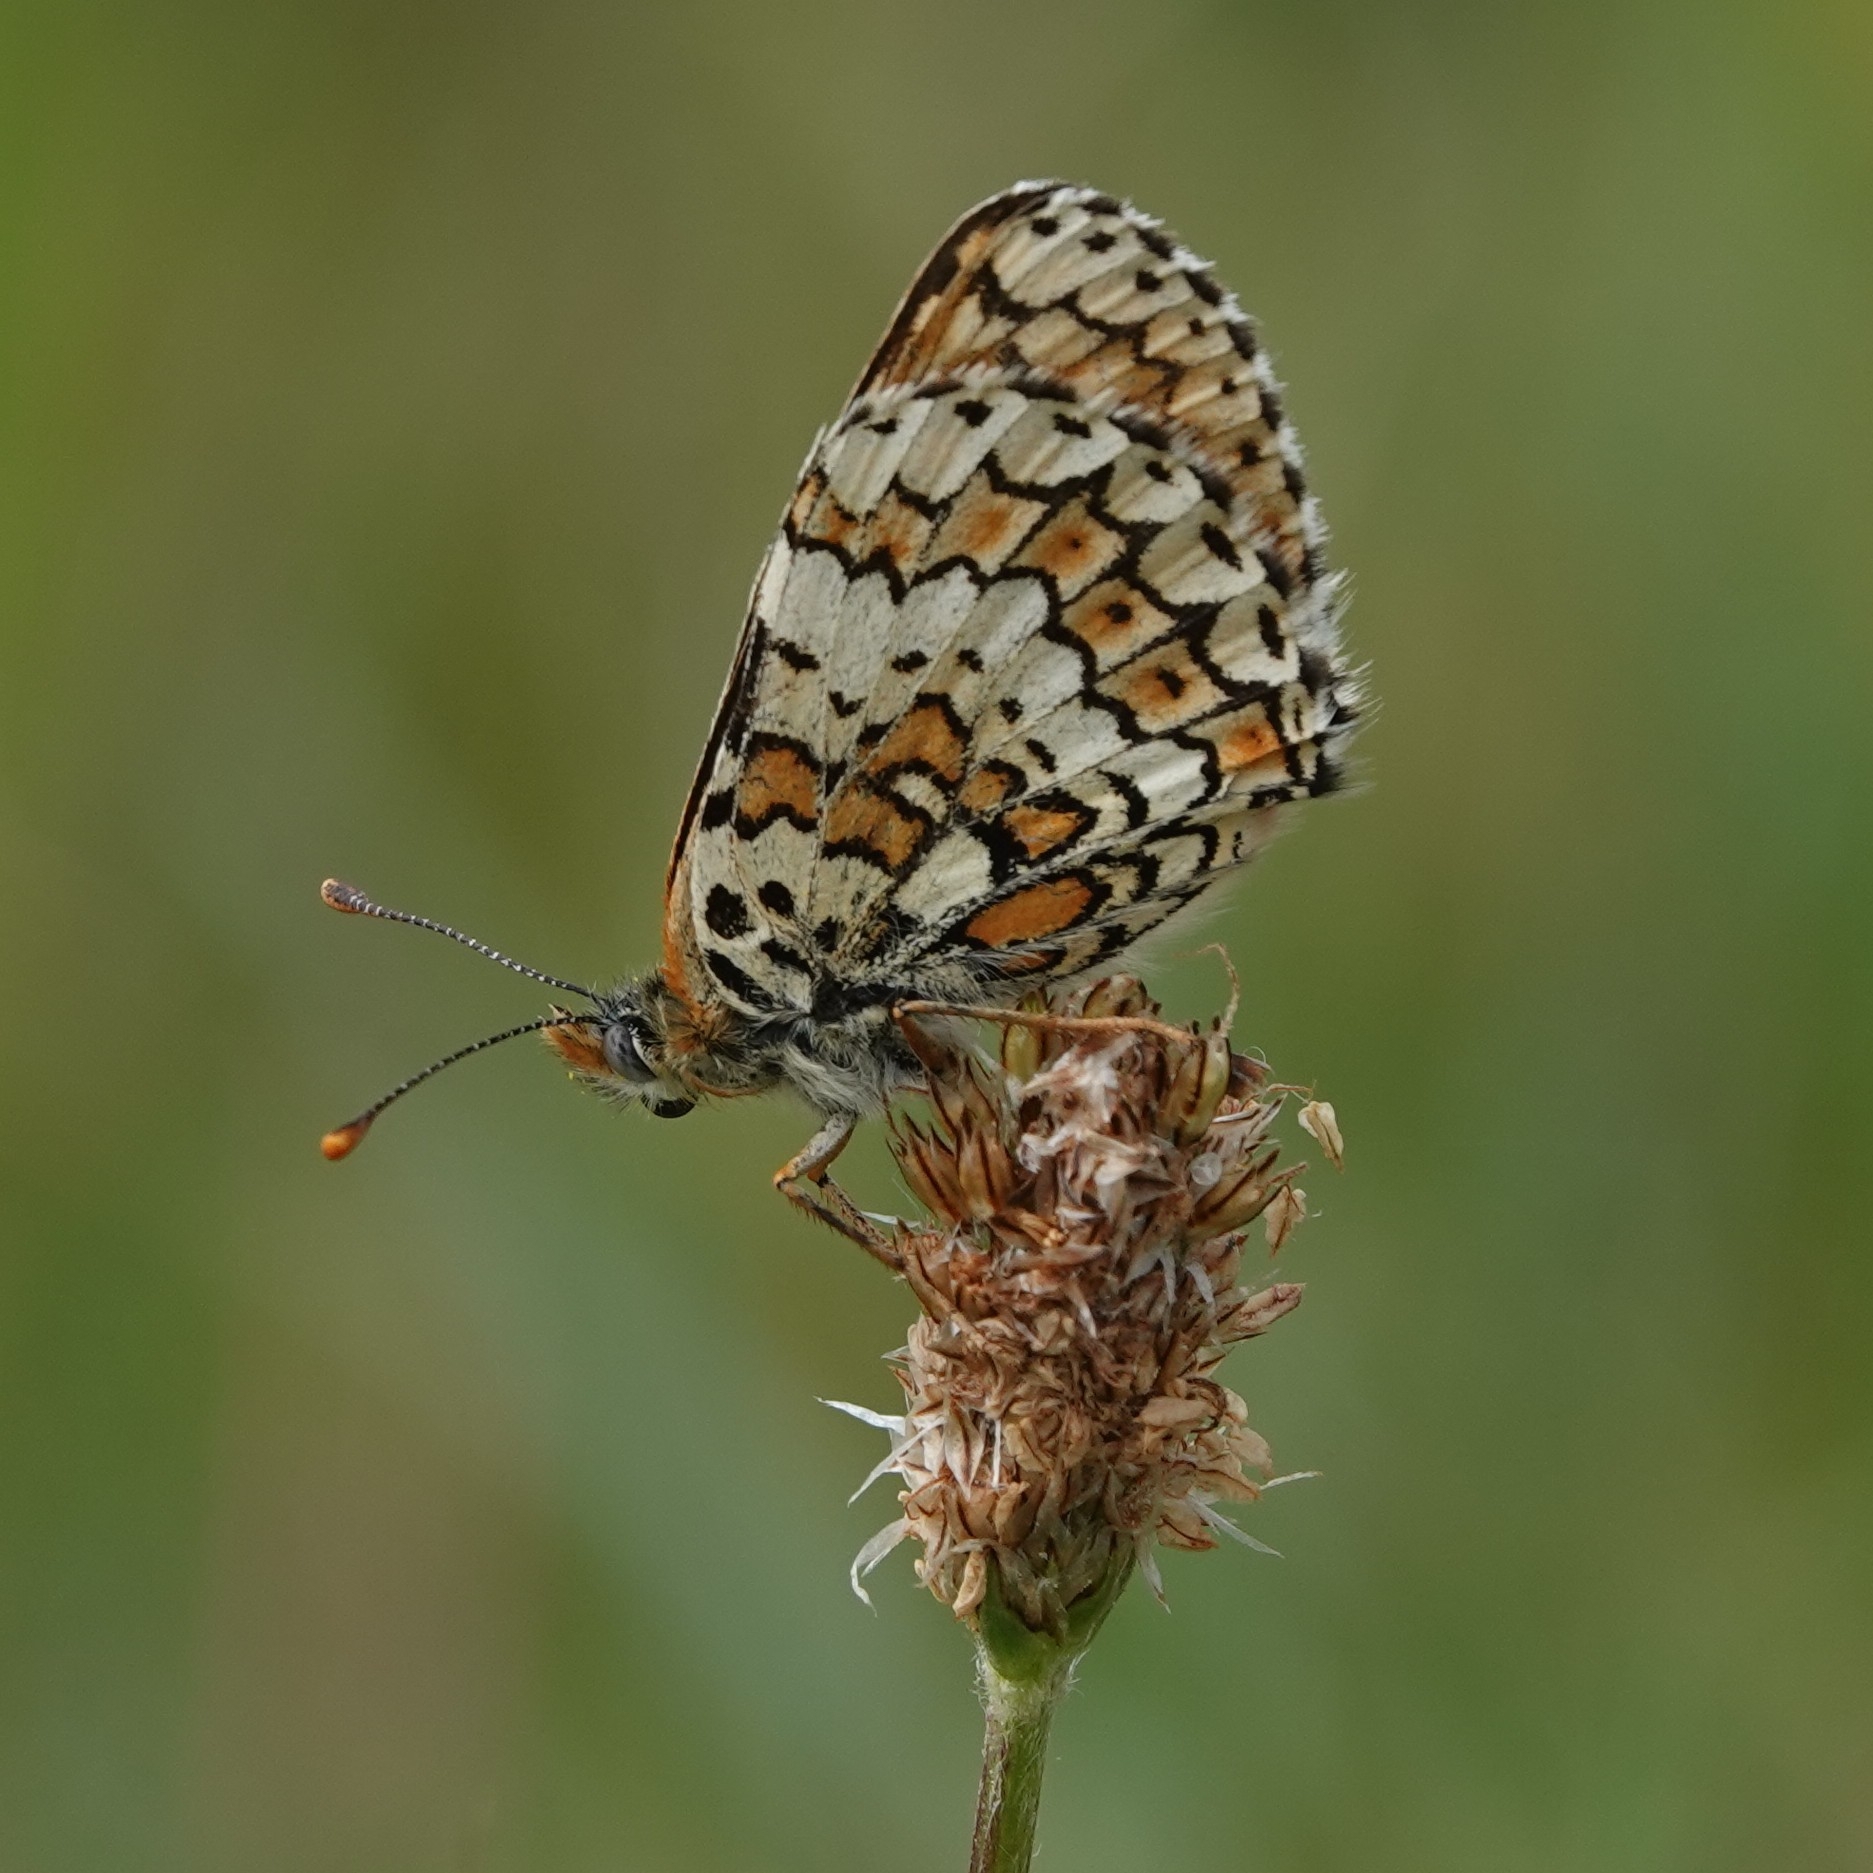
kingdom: Animalia
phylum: Arthropoda
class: Insecta
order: Lepidoptera
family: Nymphalidae
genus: Melitaea
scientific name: Melitaea cinxia
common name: Glanville fritillary
